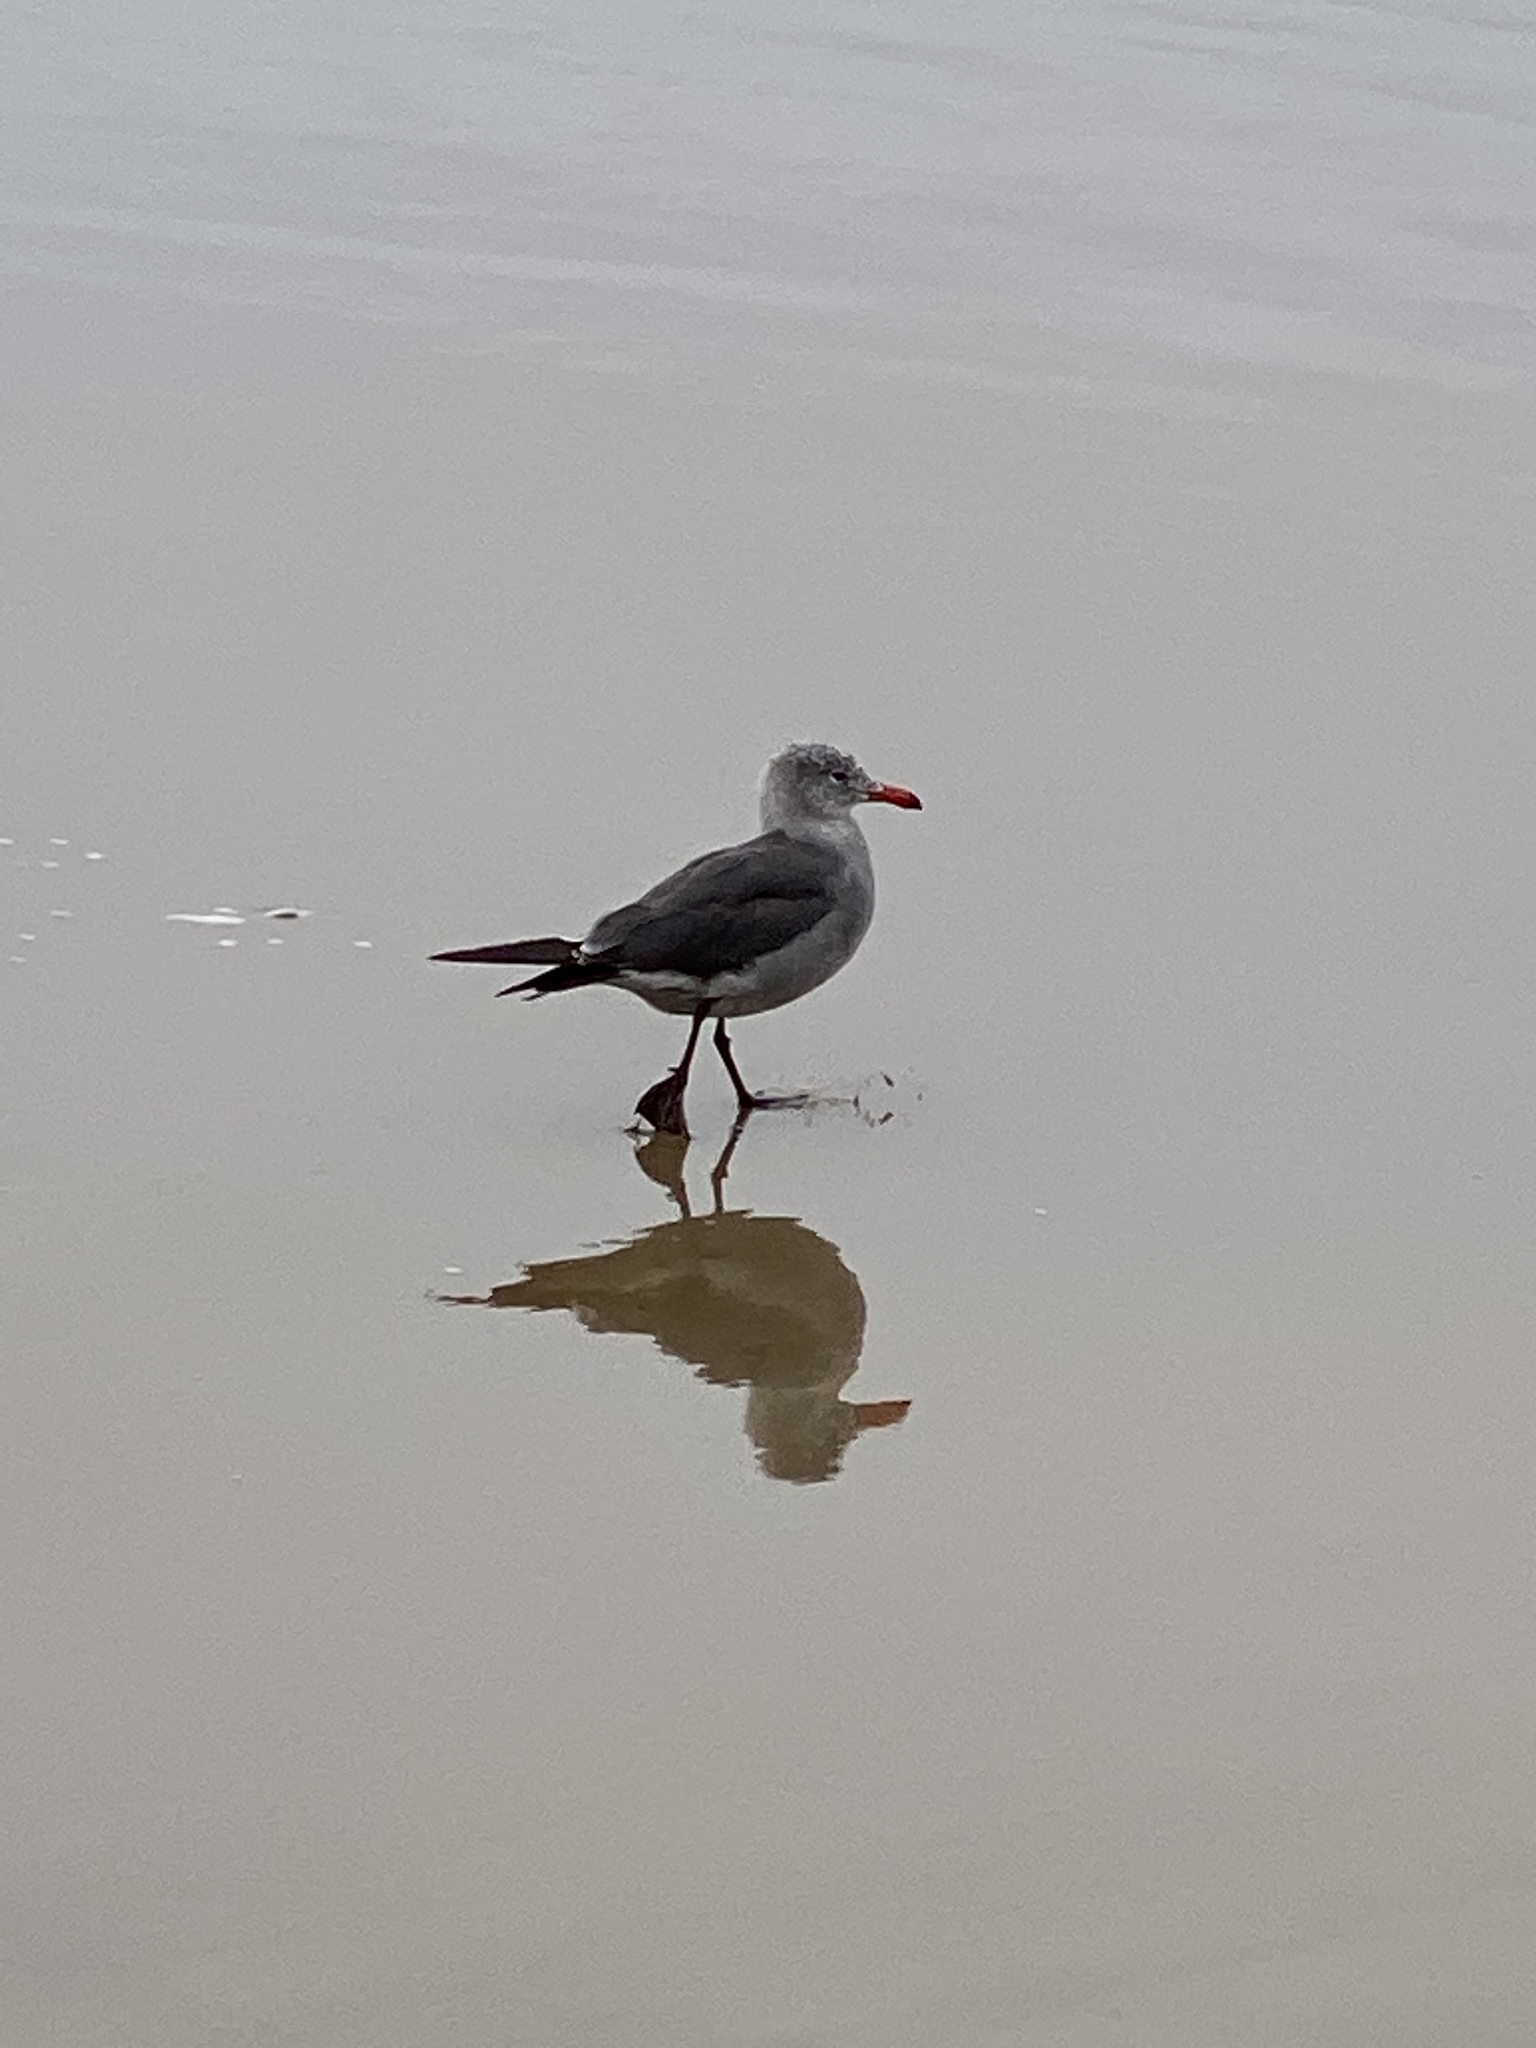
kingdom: Animalia
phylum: Chordata
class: Aves
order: Charadriiformes
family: Laridae
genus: Larus
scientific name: Larus heermanni
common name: Heermann's gull
